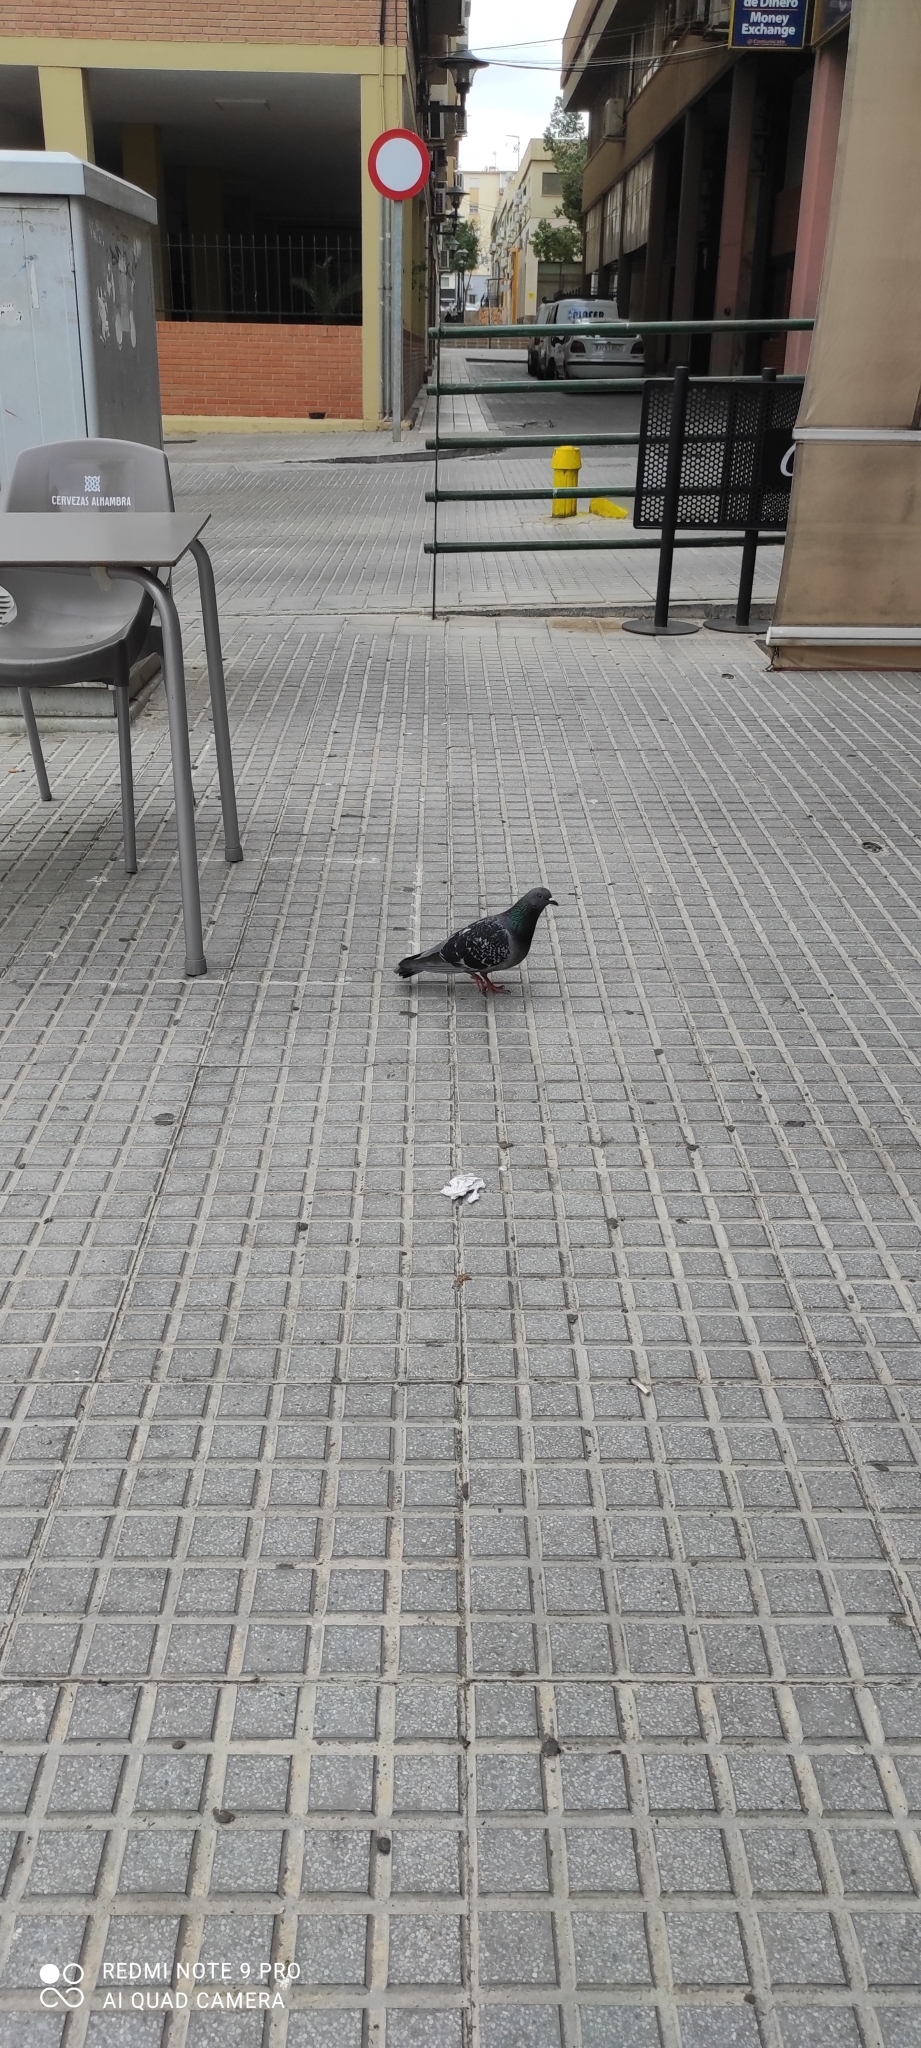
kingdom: Animalia
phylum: Chordata
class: Aves
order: Columbiformes
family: Columbidae
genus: Columba
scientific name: Columba livia
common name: Rock pigeon
